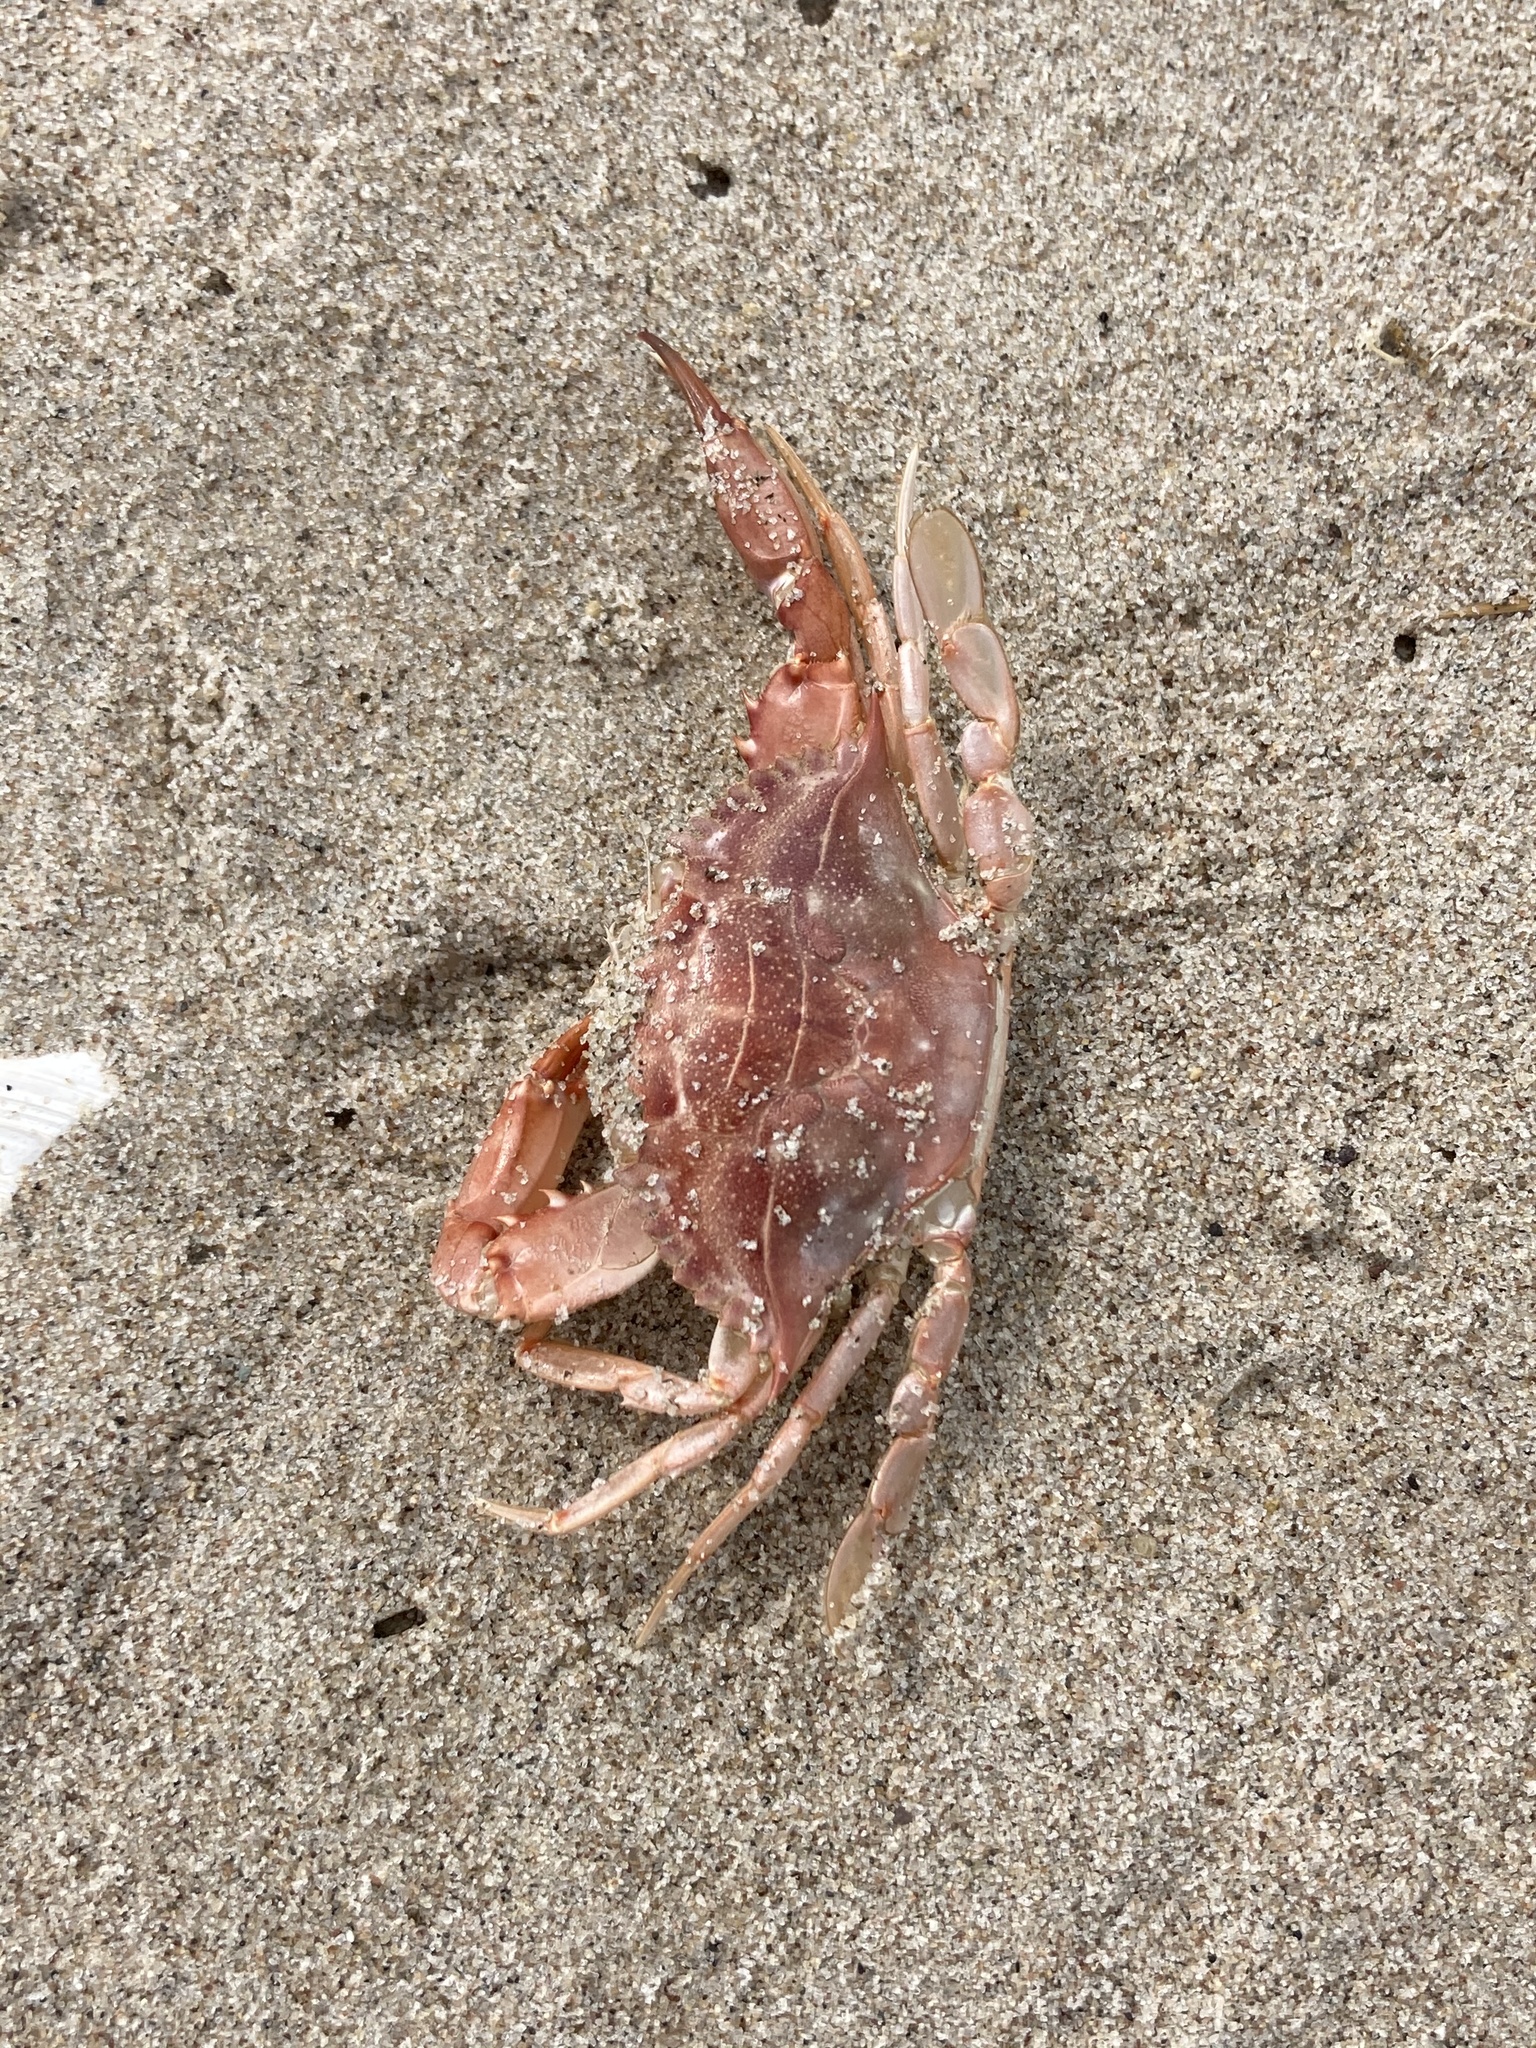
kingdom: Animalia
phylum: Arthropoda
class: Malacostraca
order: Decapoda
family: Portunidae
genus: Callinectes
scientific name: Callinectes sapidus
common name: Blue crab
